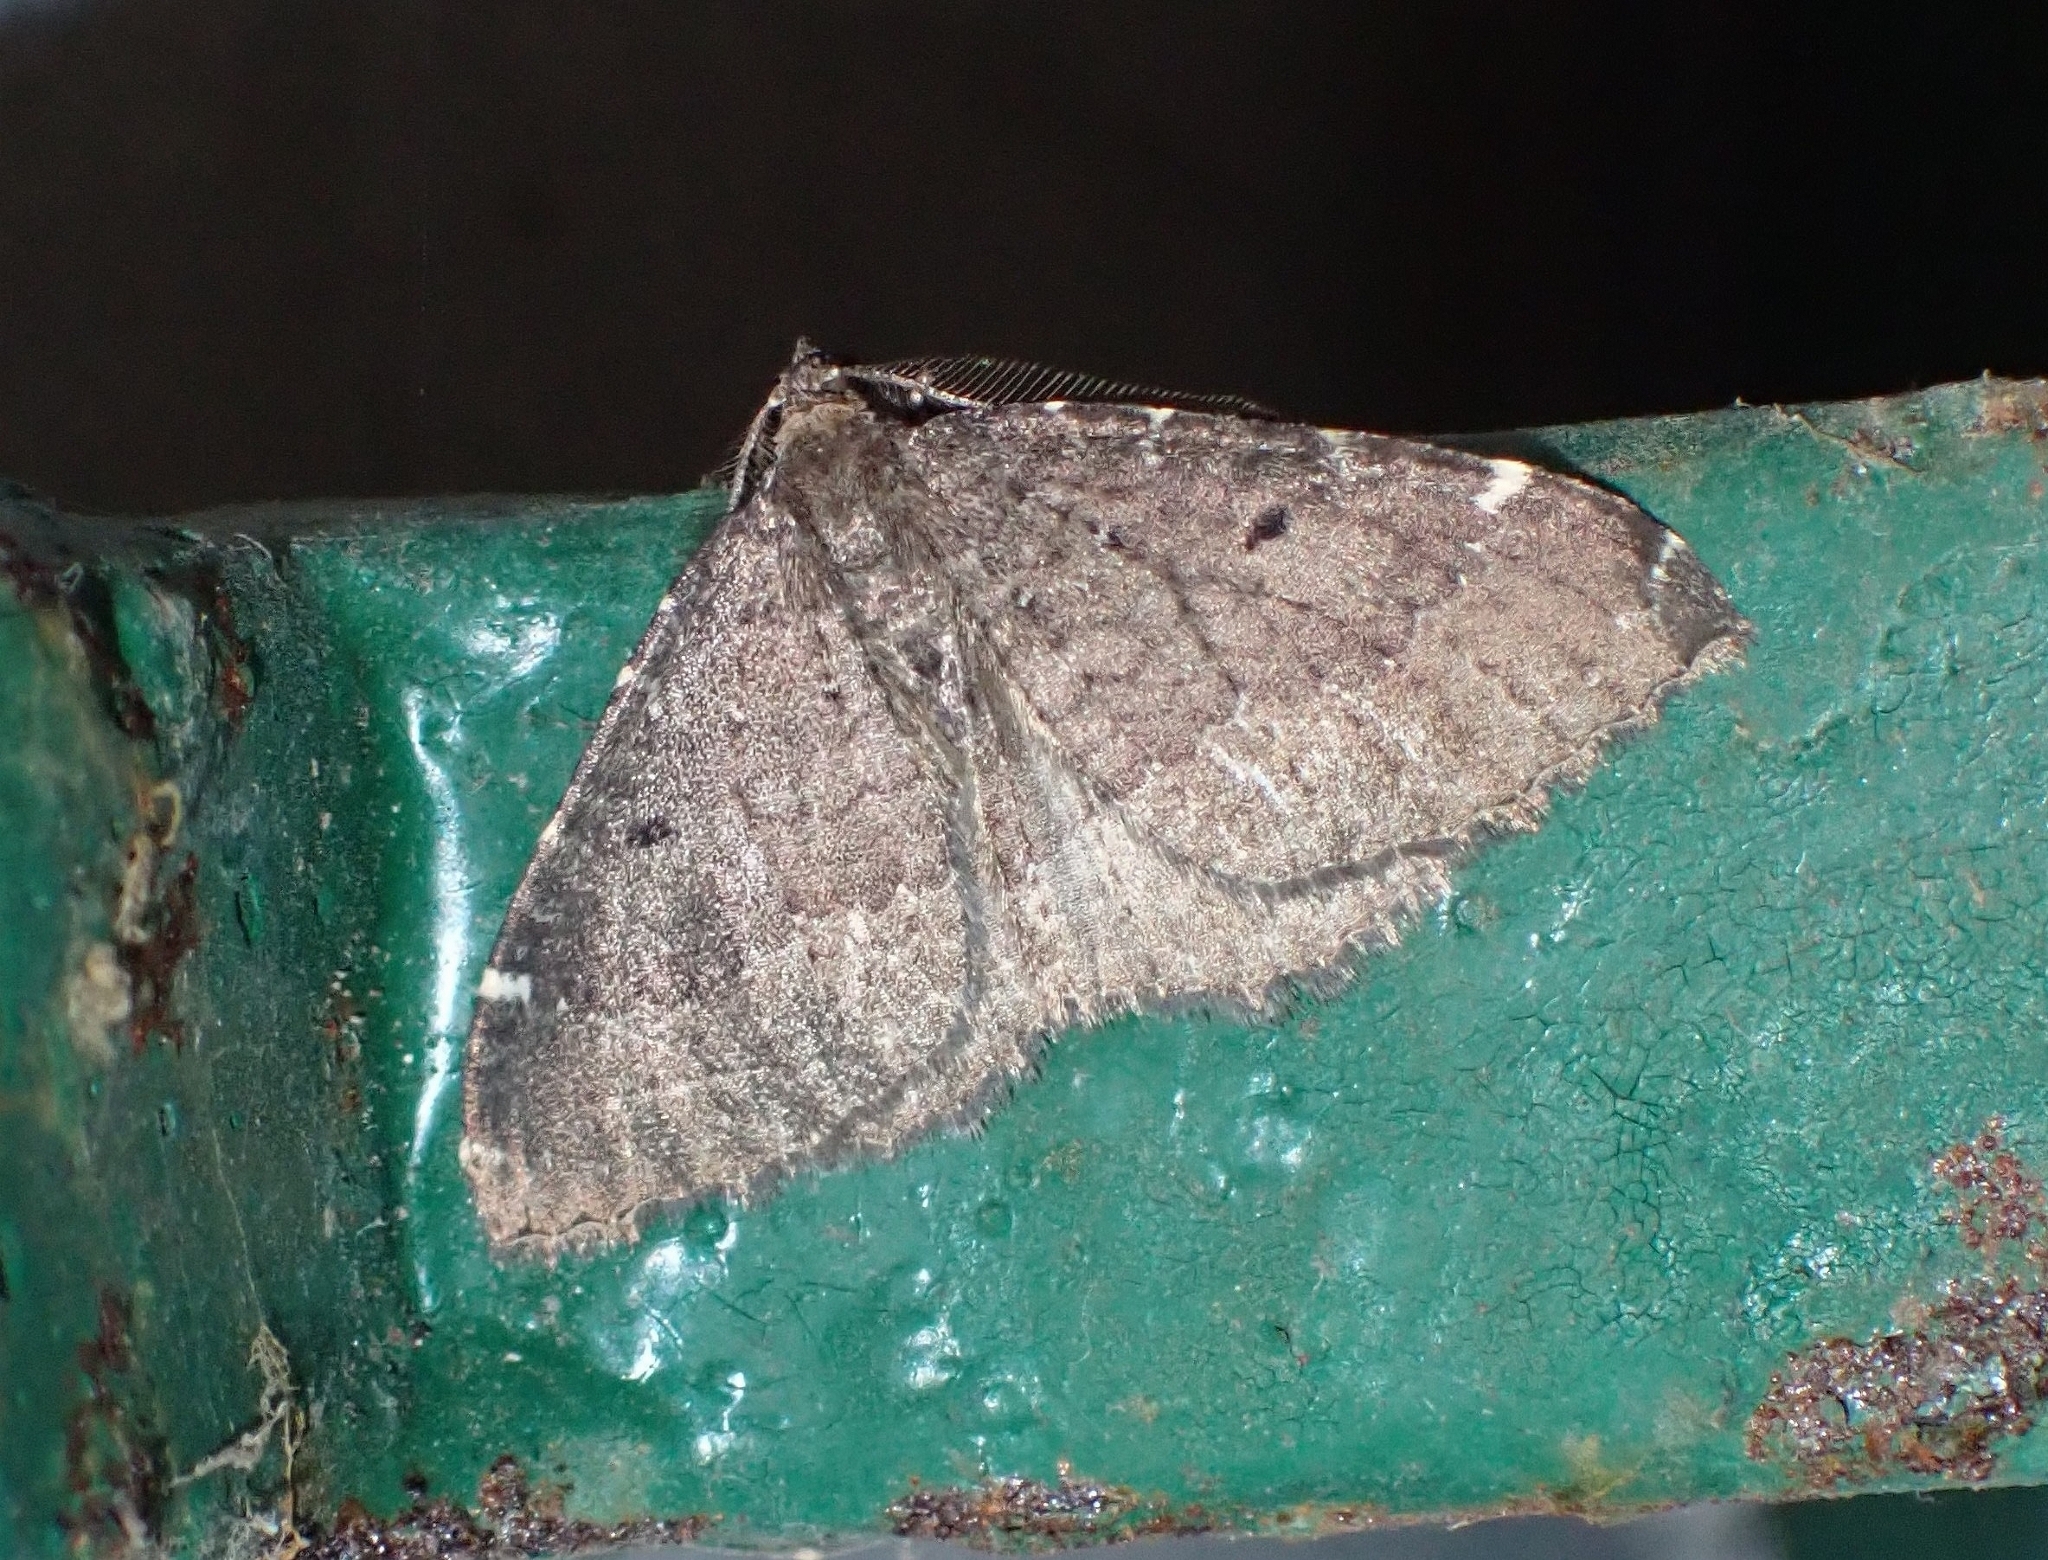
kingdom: Animalia
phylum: Arthropoda
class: Insecta
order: Lepidoptera
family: Geometridae
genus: Herbulotina
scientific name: Herbulotina grandis
